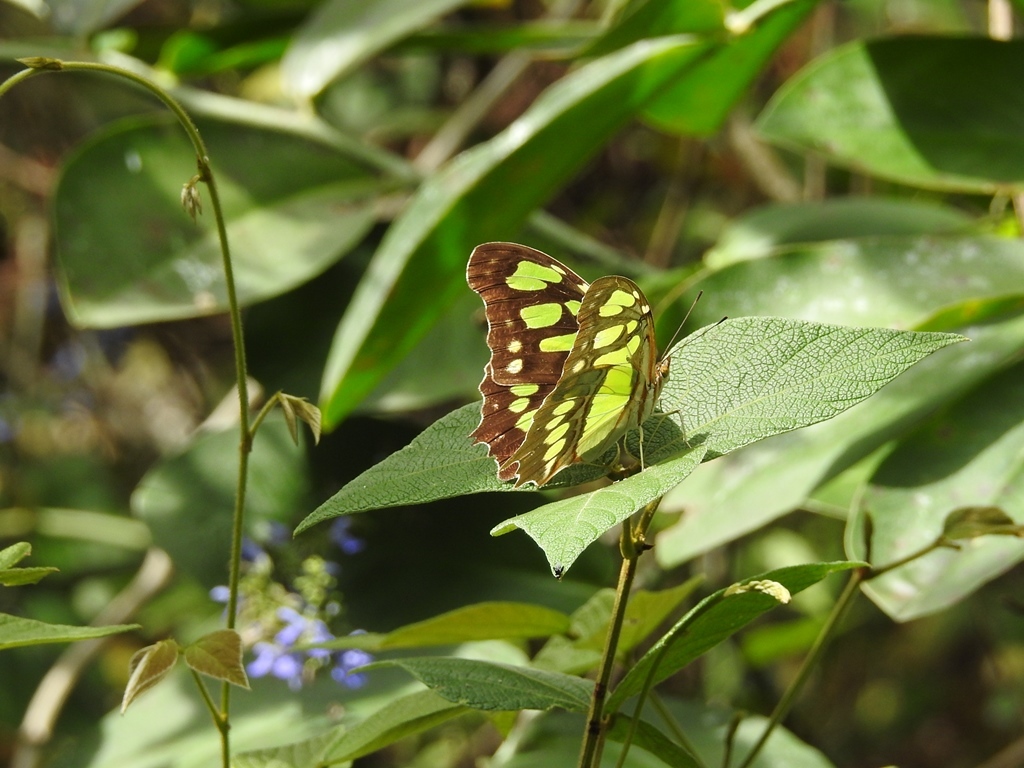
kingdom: Animalia
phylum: Arthropoda
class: Insecta
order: Lepidoptera
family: Nymphalidae
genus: Siproeta
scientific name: Siproeta stelenes
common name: Malachite
